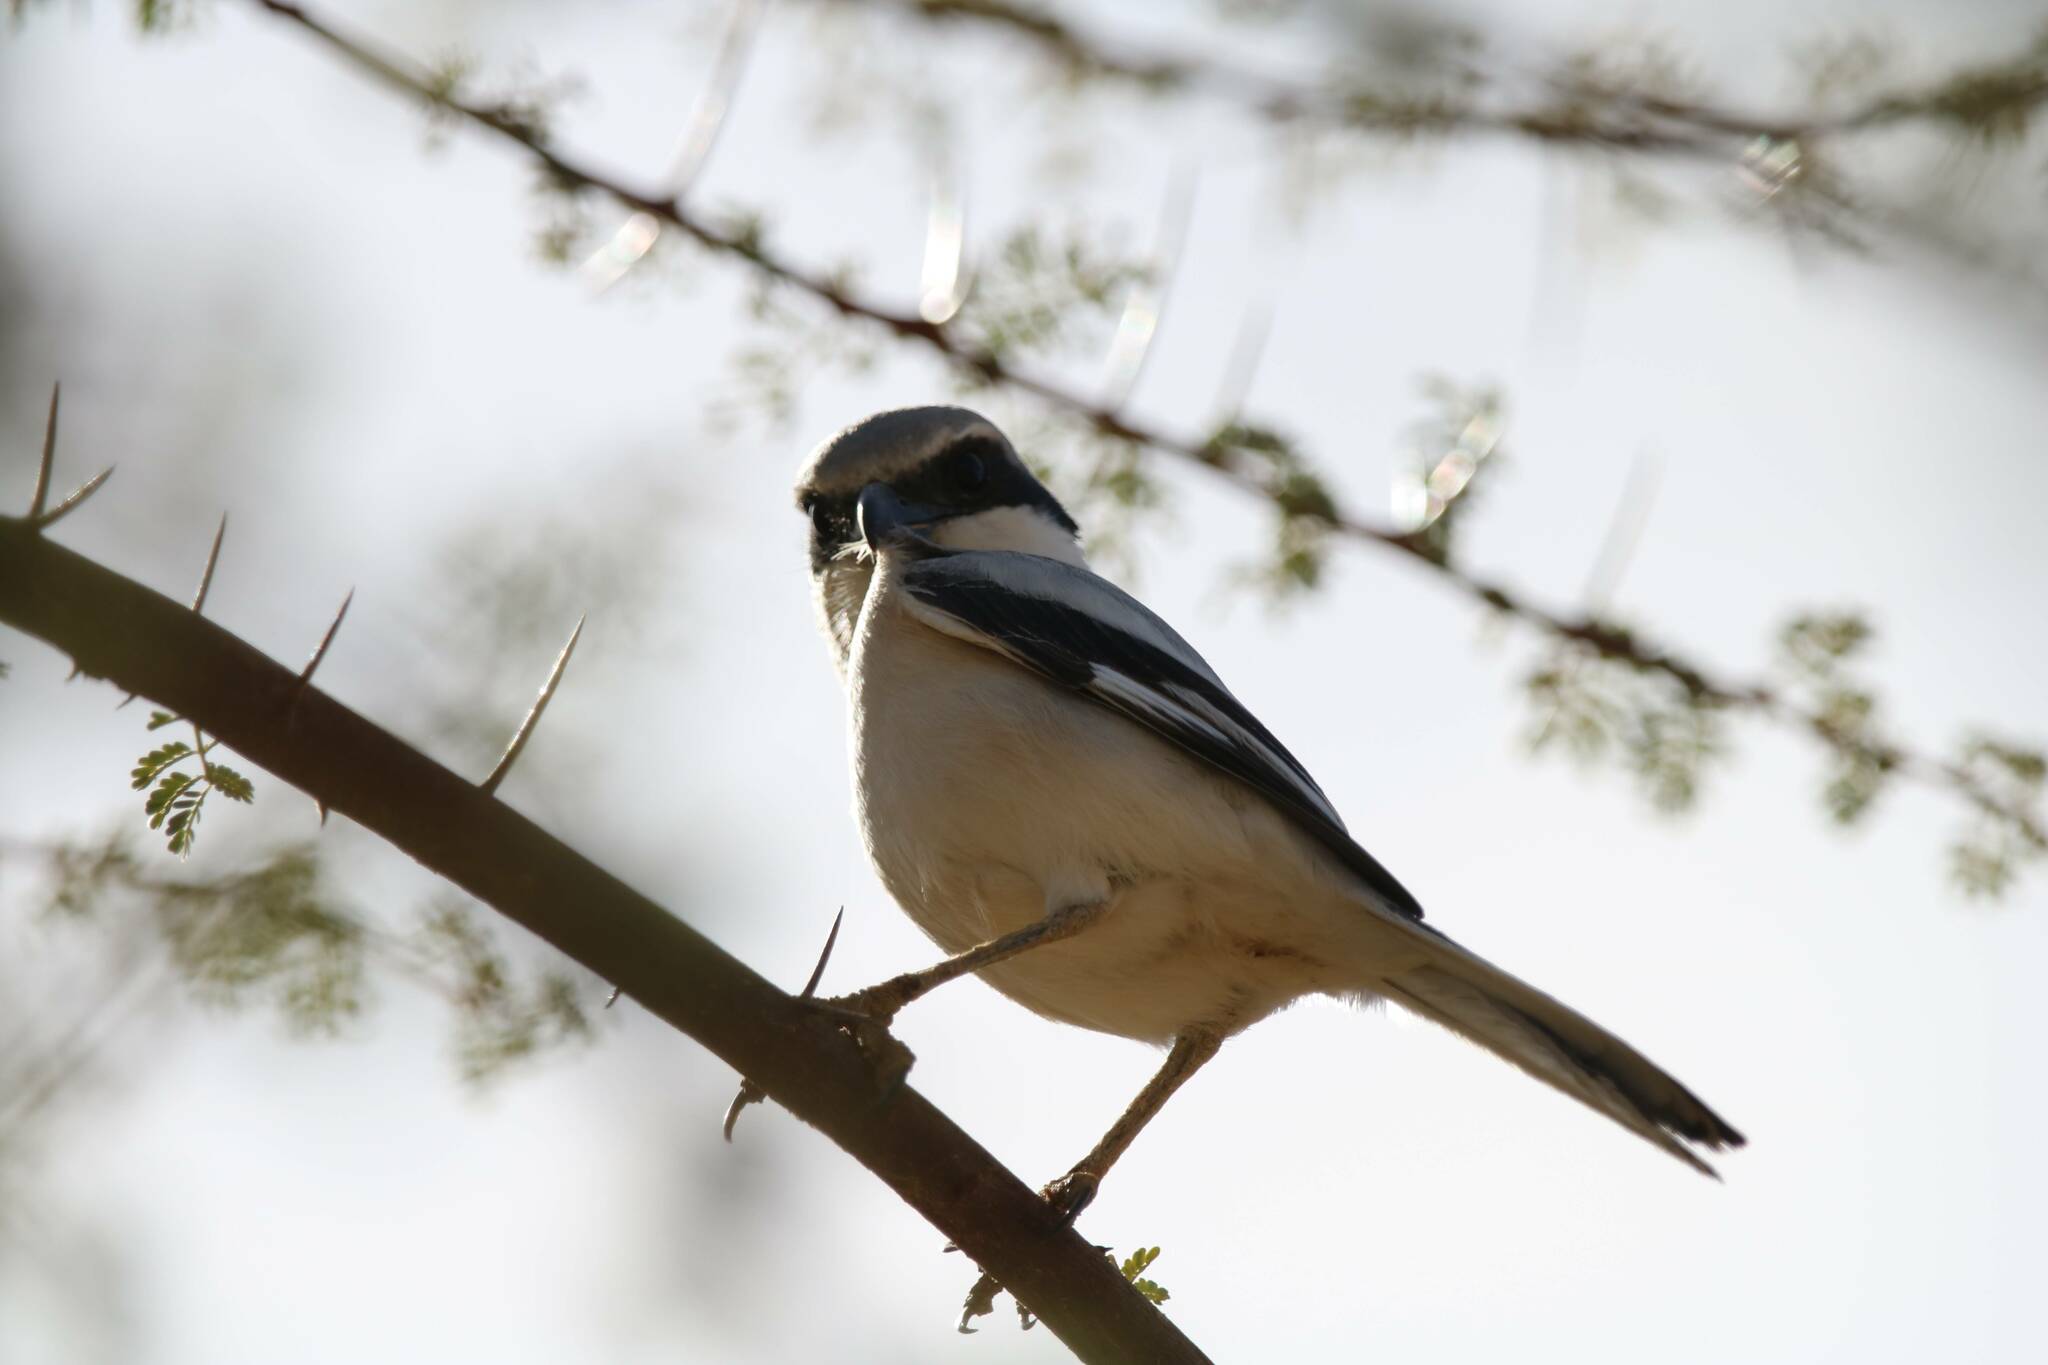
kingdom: Animalia
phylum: Chordata
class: Aves
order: Passeriformes
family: Laniidae
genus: Lanius
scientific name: Lanius excubitor
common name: Great grey shrike
